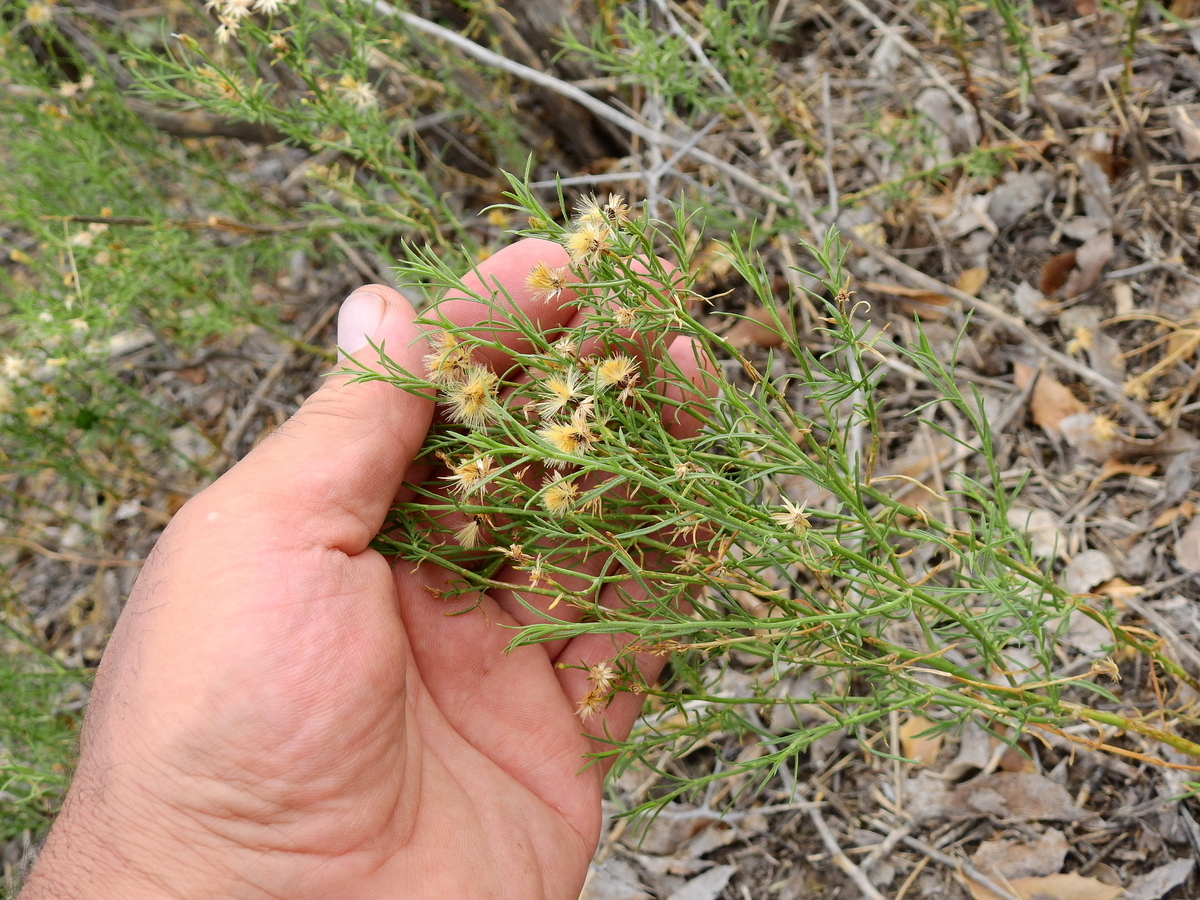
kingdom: Plantae
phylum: Tracheophyta
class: Magnoliopsida
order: Asterales
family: Asteraceae
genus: Baccharis
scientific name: Baccharis darwinii
